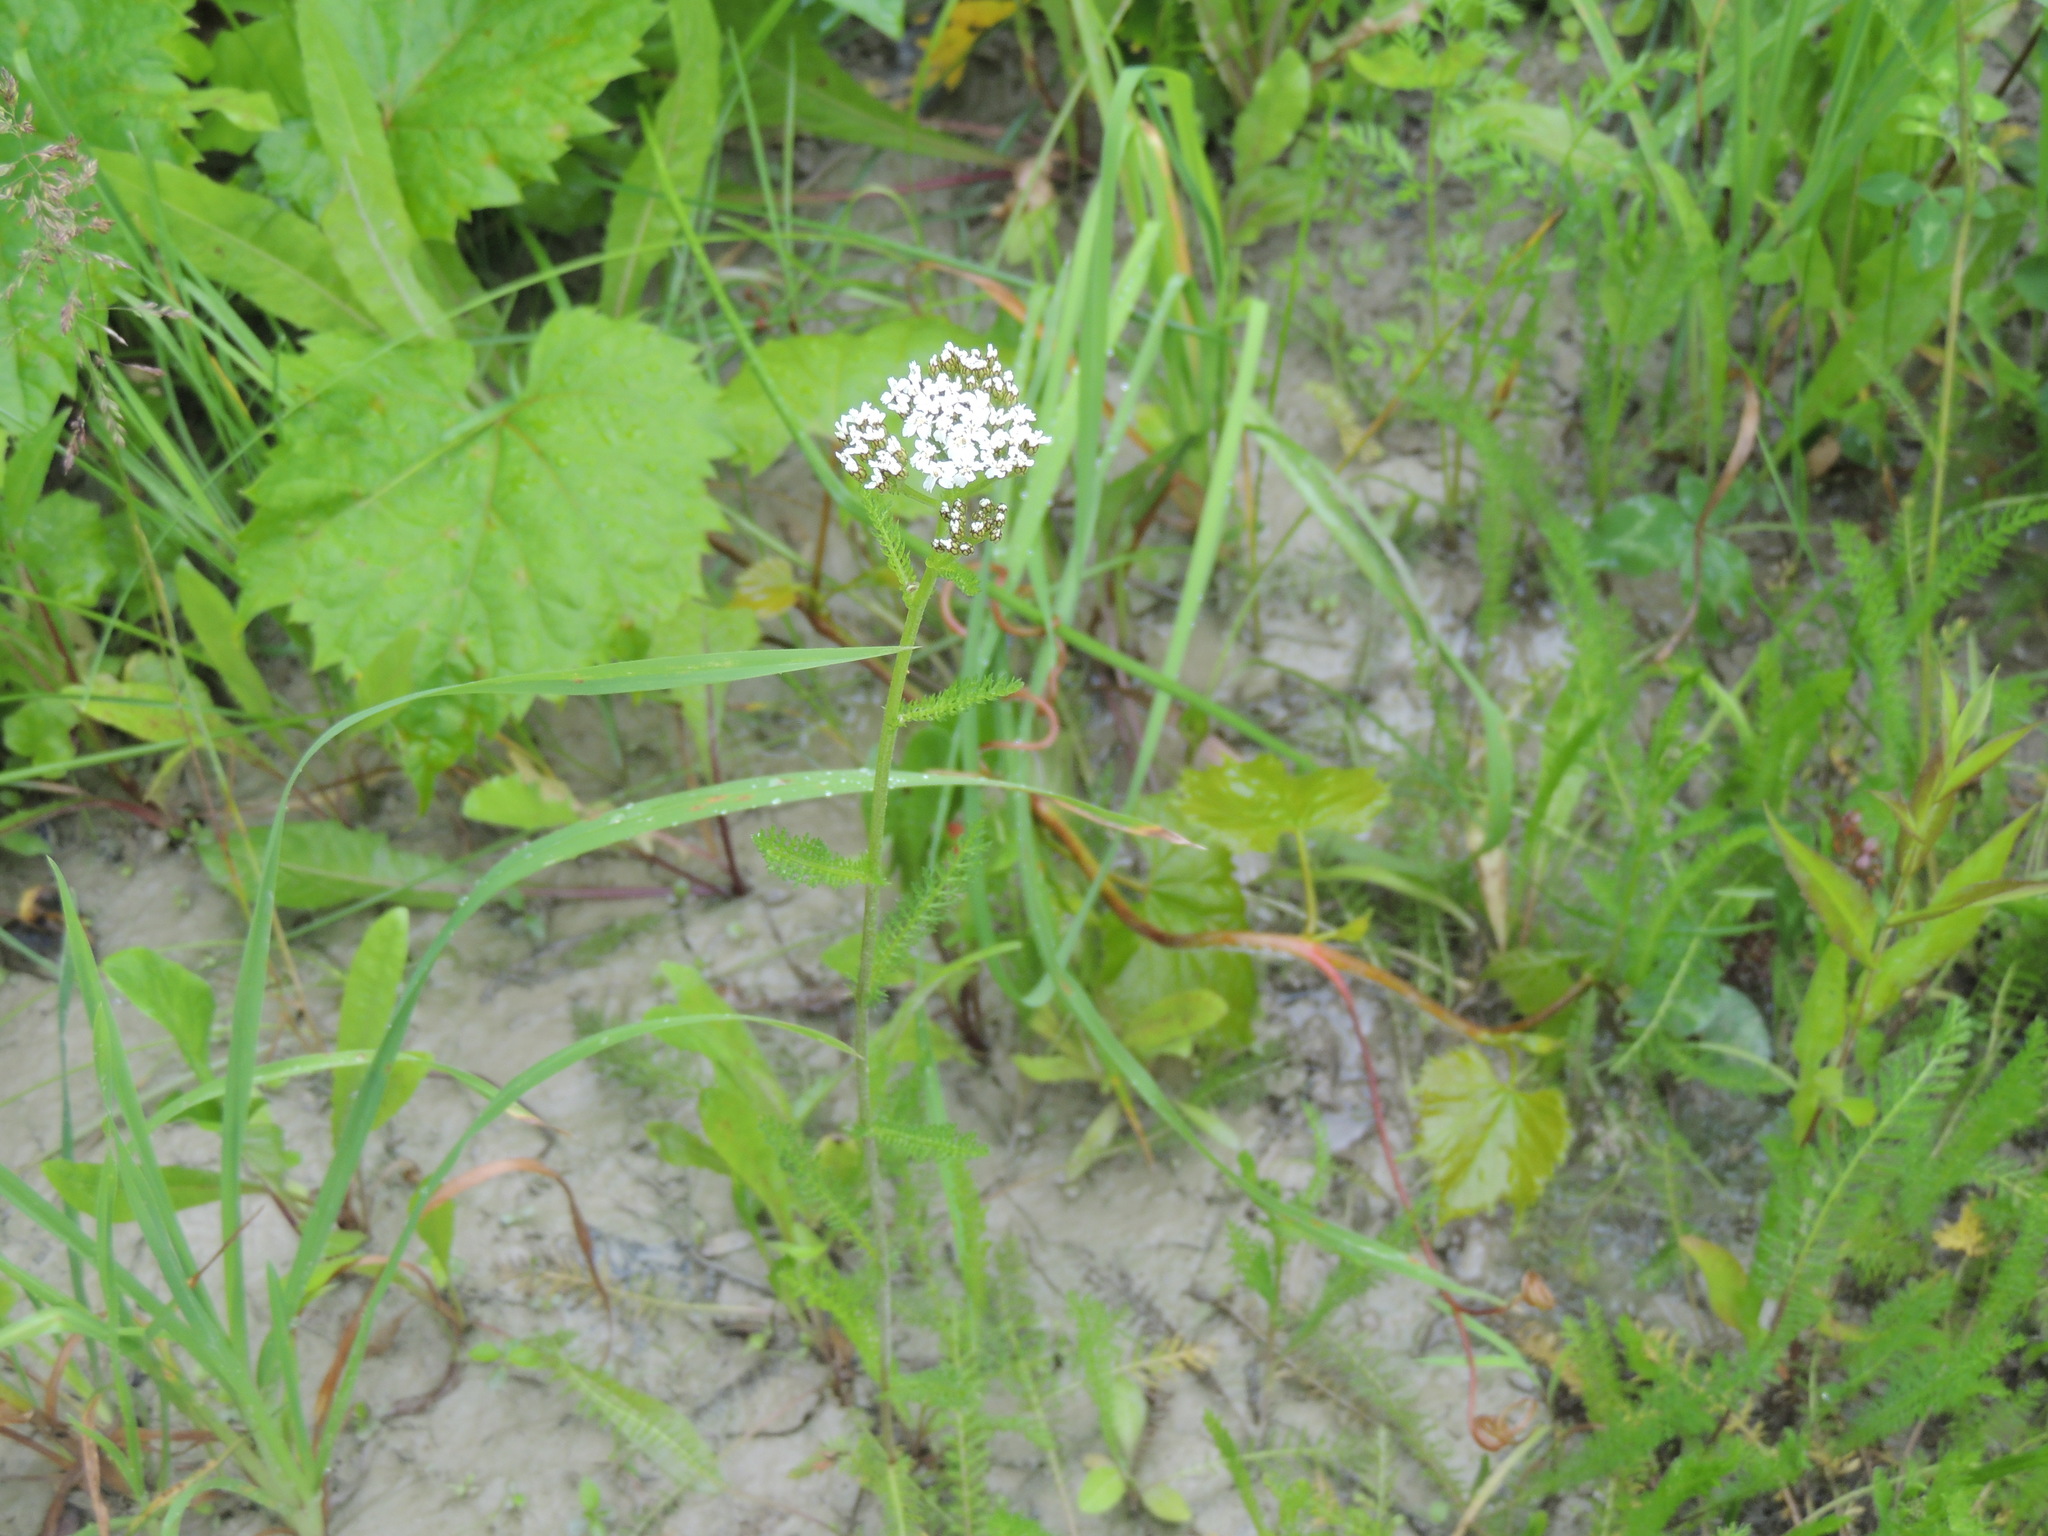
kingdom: Plantae
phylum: Tracheophyta
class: Magnoliopsida
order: Asterales
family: Asteraceae
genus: Achillea
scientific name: Achillea millefolium
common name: Yarrow
